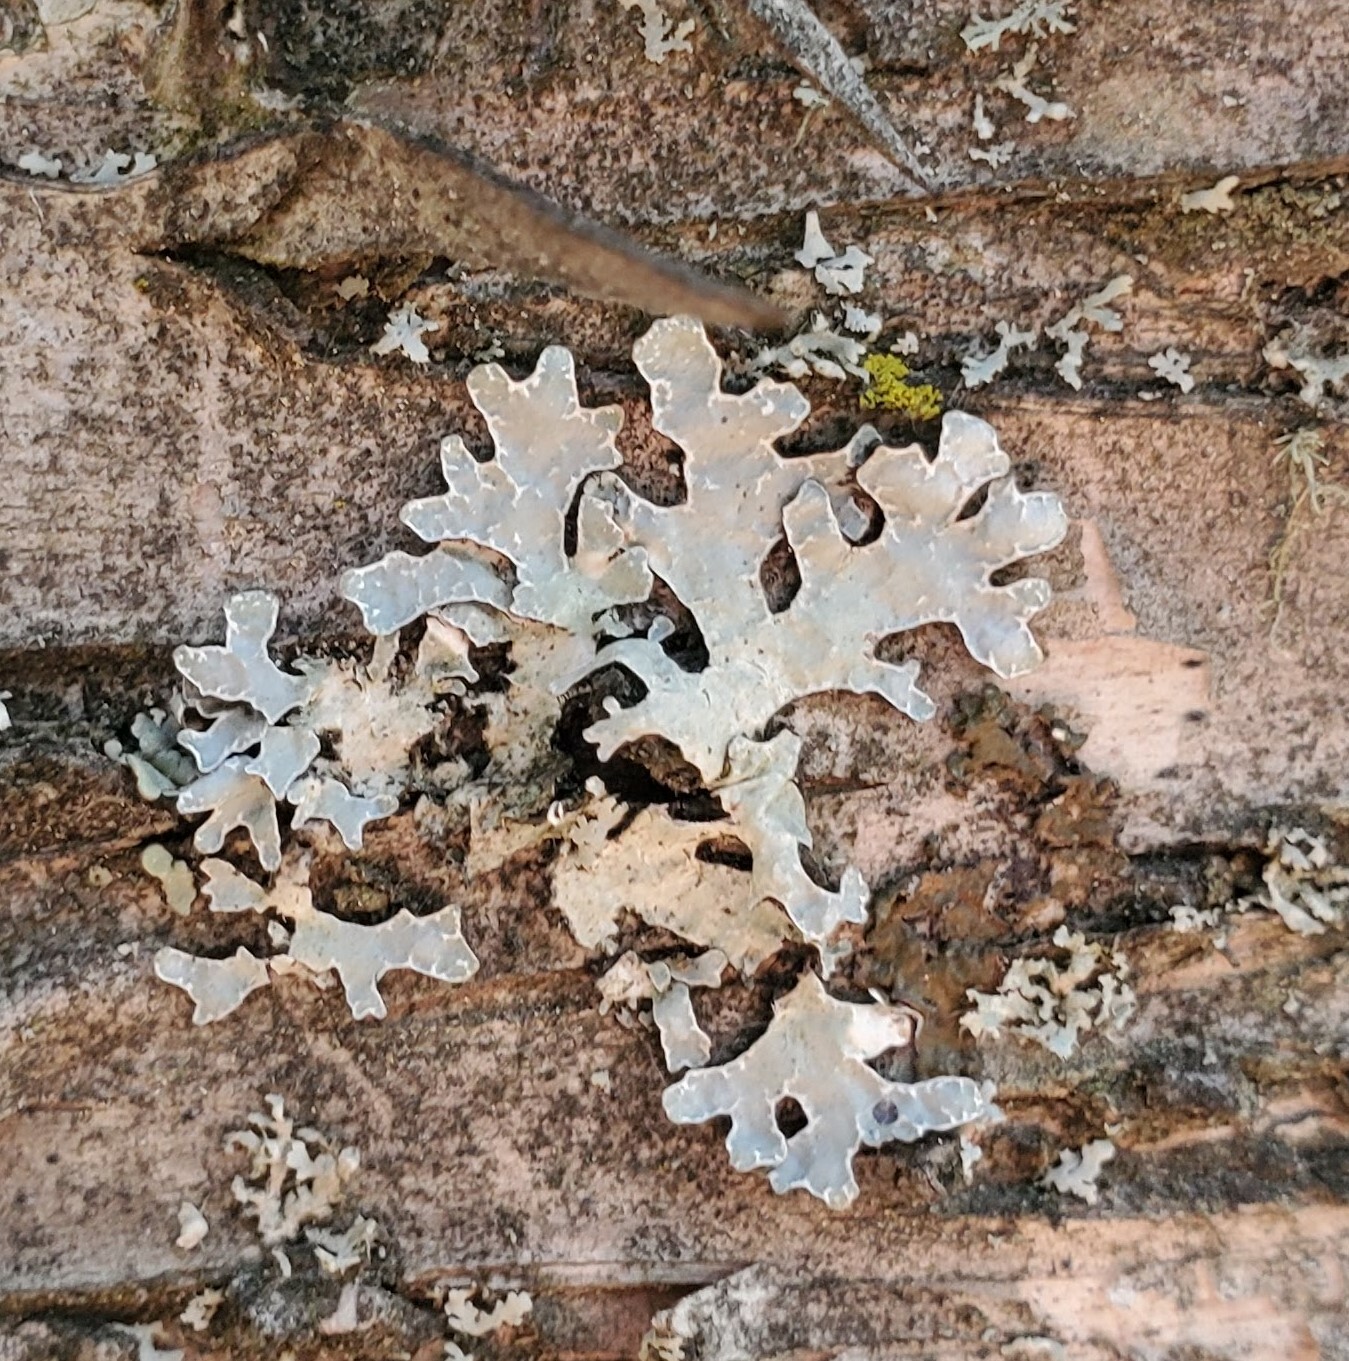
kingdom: Fungi
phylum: Ascomycota
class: Lecanoromycetes
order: Lecanorales
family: Parmeliaceae
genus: Parmelia
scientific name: Parmelia sulcata
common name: Netted shield lichen
